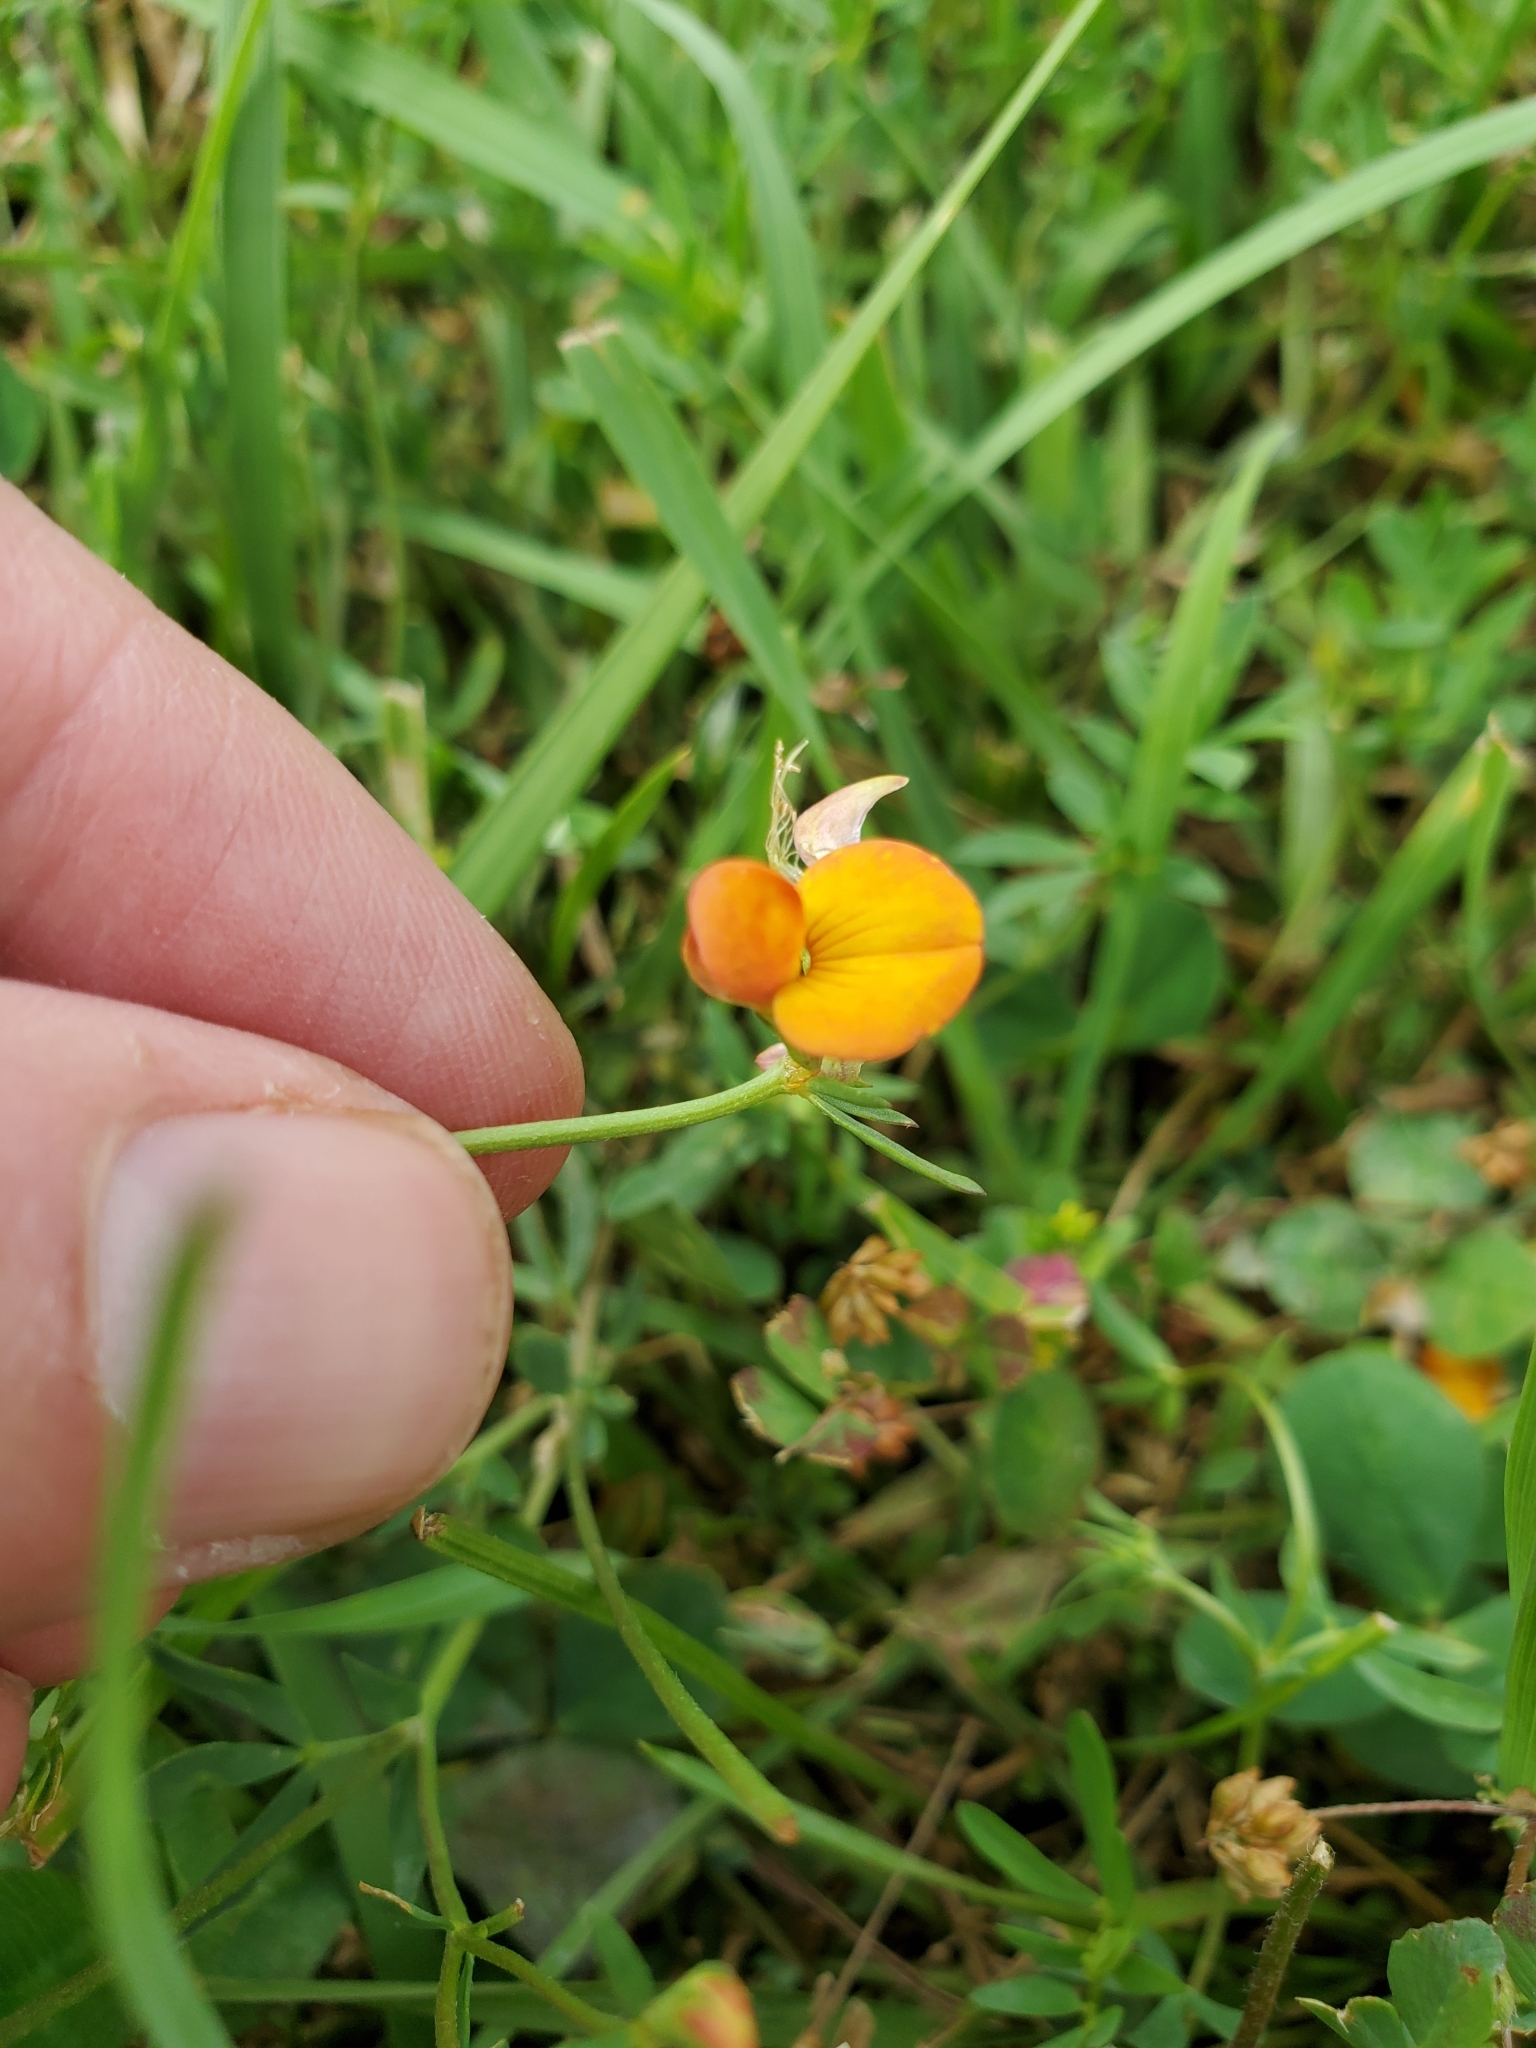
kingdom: Plantae
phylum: Tracheophyta
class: Magnoliopsida
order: Fabales
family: Fabaceae
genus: Lotus
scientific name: Lotus tenuis
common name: Narrow-leaved bird's-foot-trefoil
